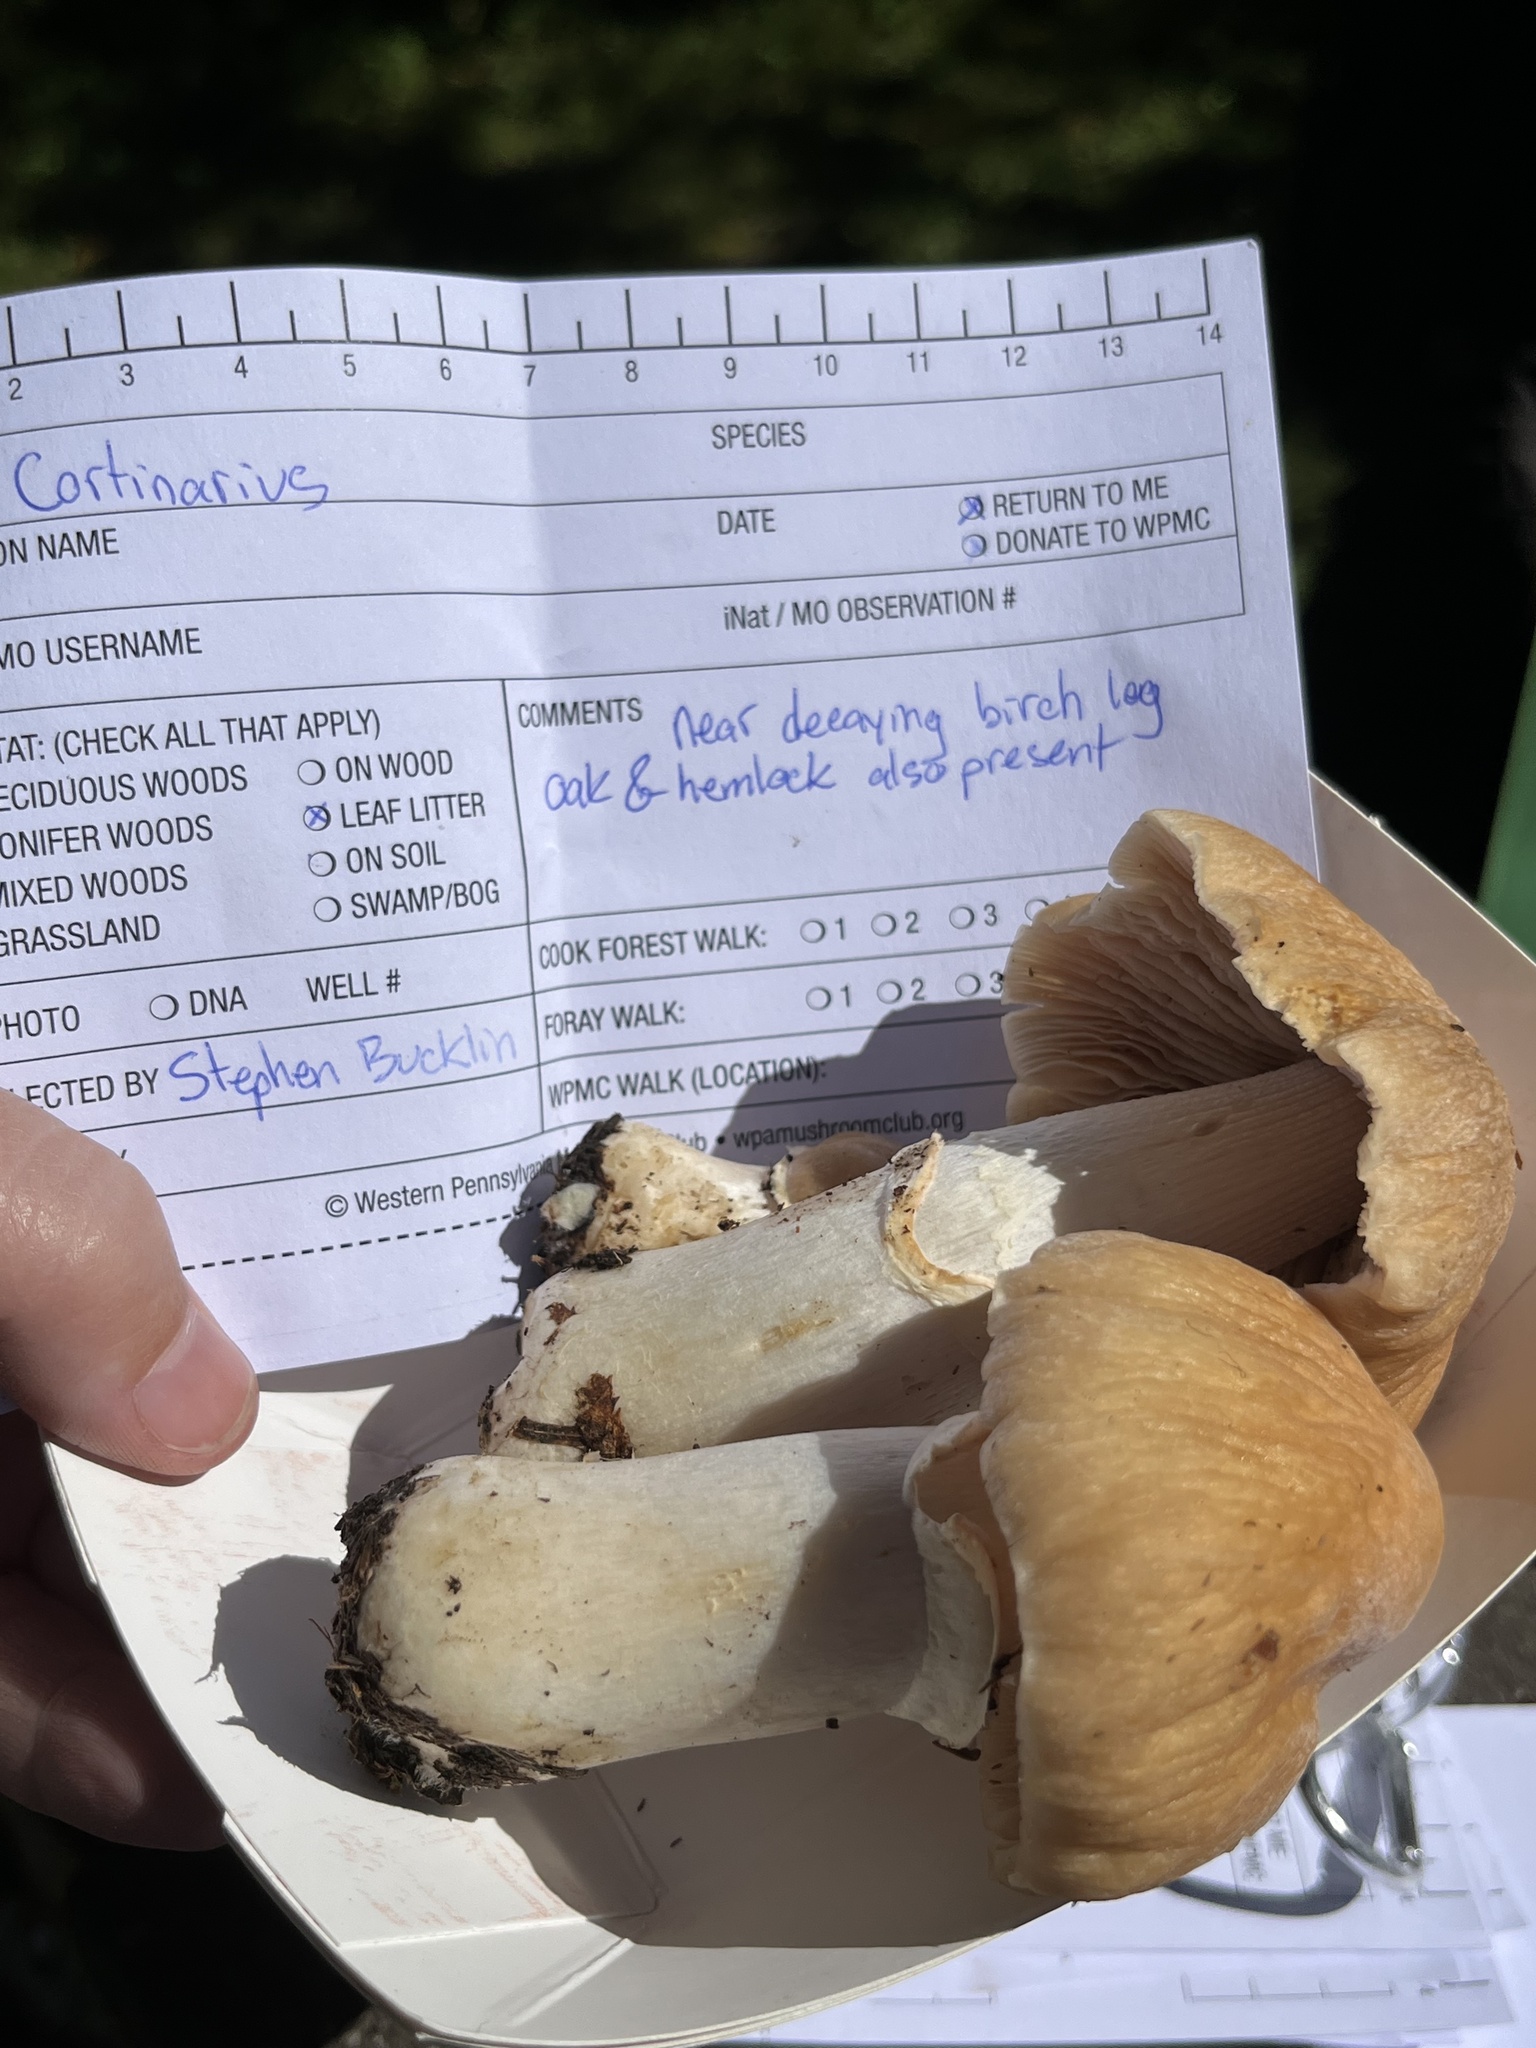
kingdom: Fungi
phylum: Basidiomycota
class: Agaricomycetes
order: Agaricales
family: Cortinariaceae
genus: Cortinarius
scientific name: Cortinarius caperatus
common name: The gypsy
